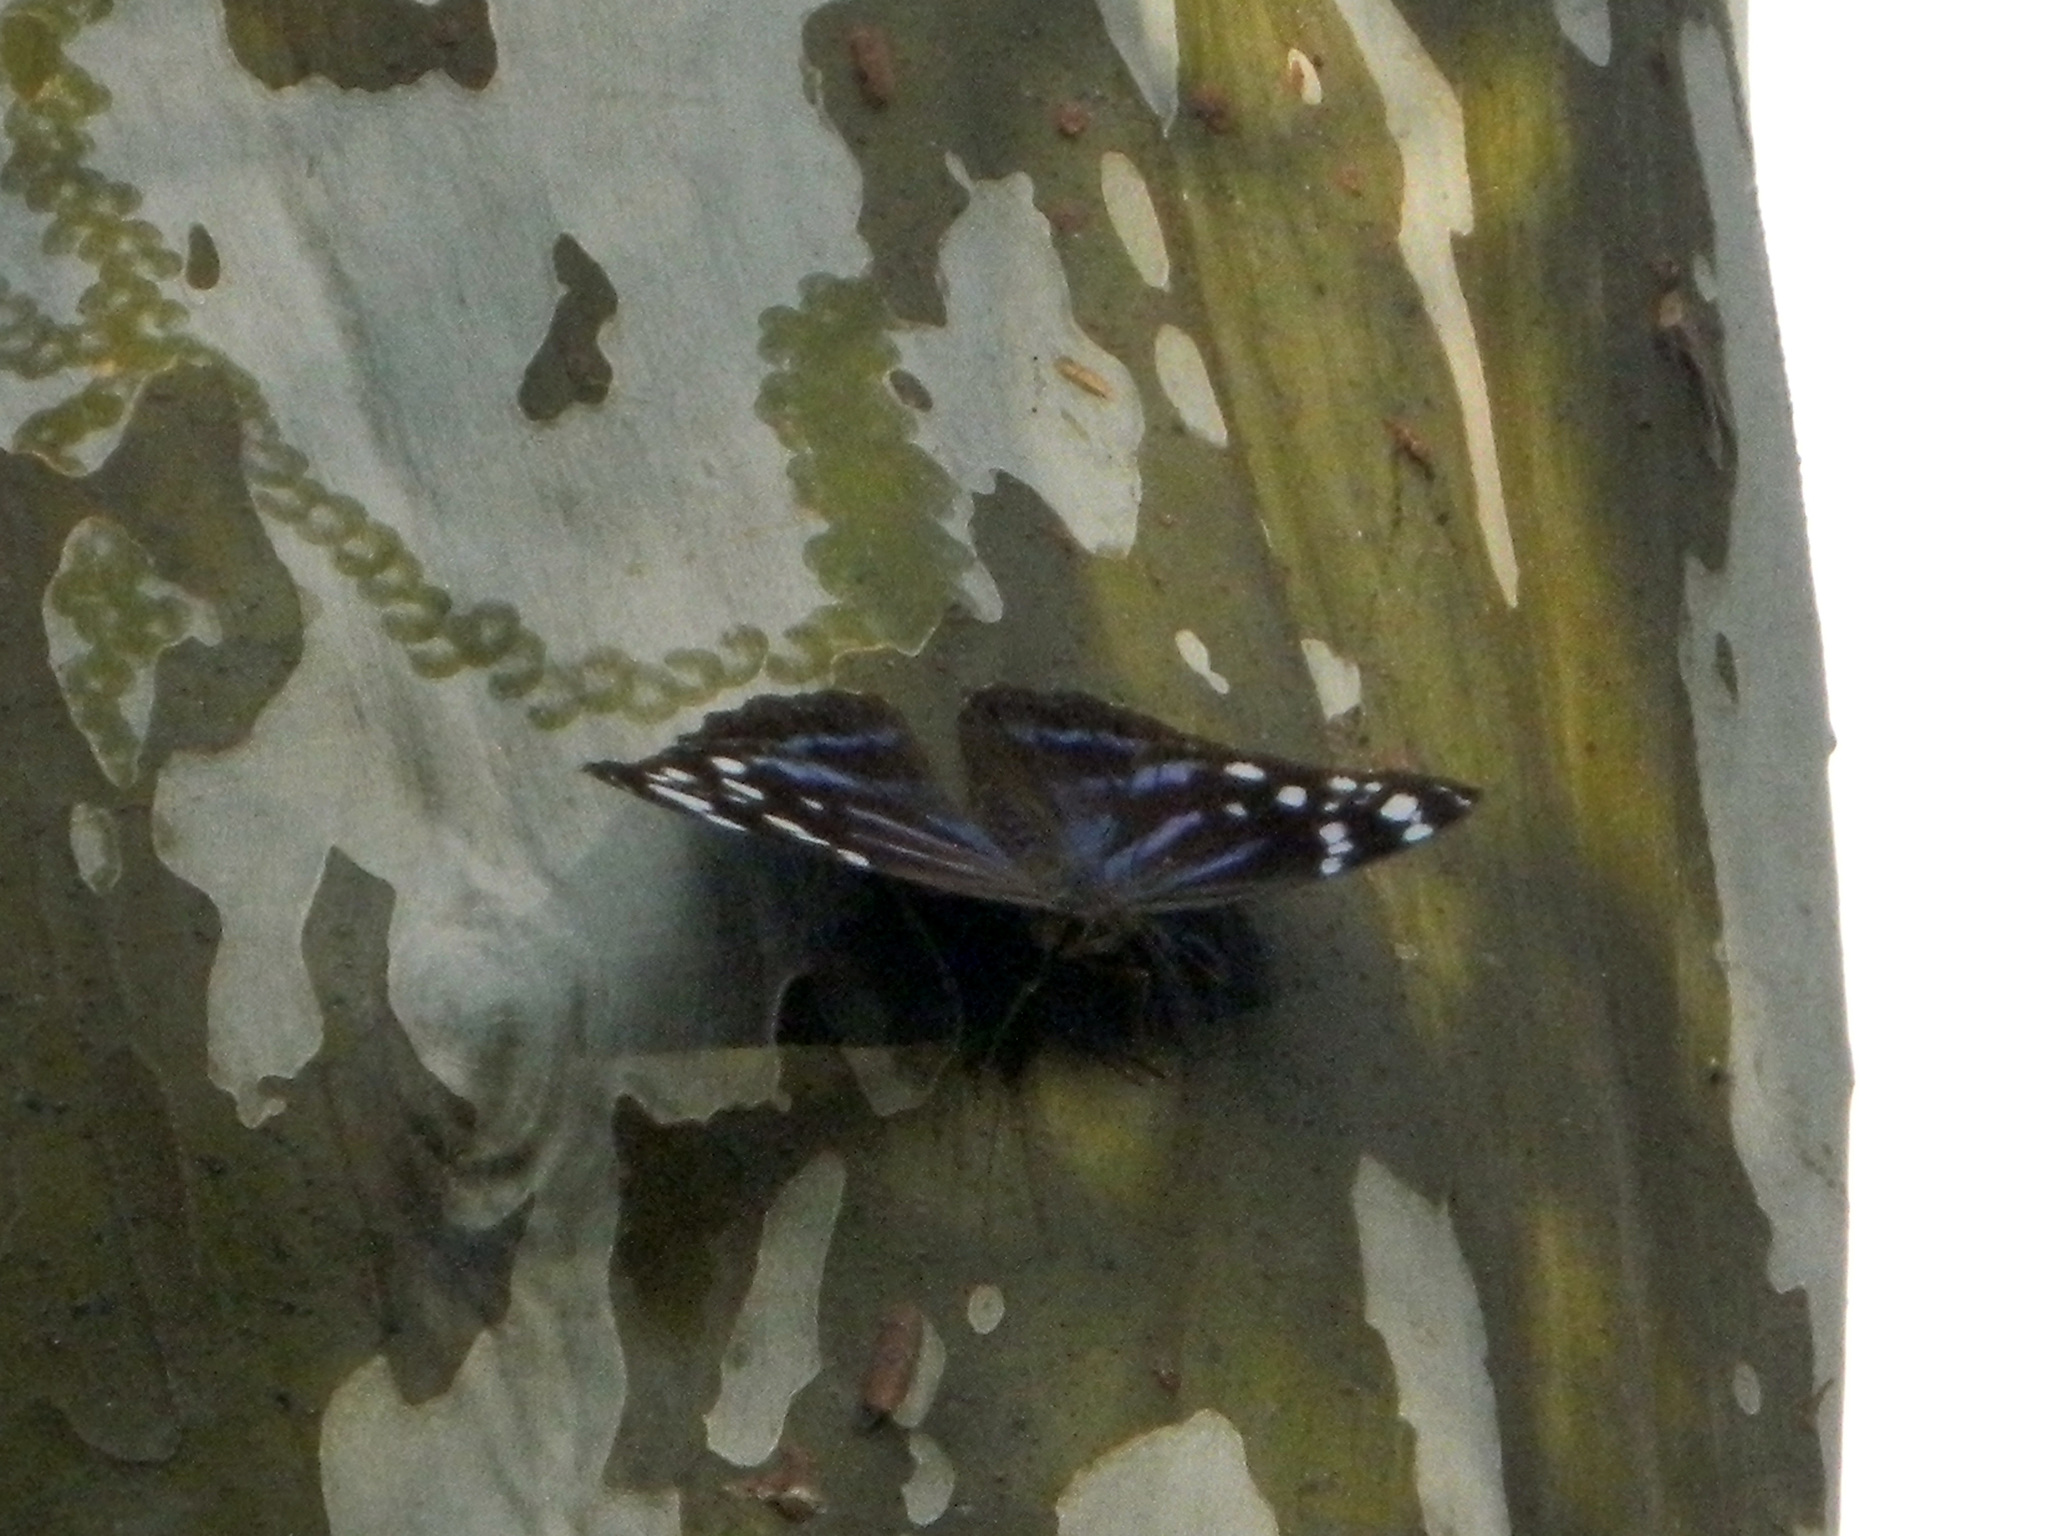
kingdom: Animalia
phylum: Arthropoda
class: Insecta
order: Lepidoptera
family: Nymphalidae
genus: Myscelia
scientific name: Myscelia ethusa
